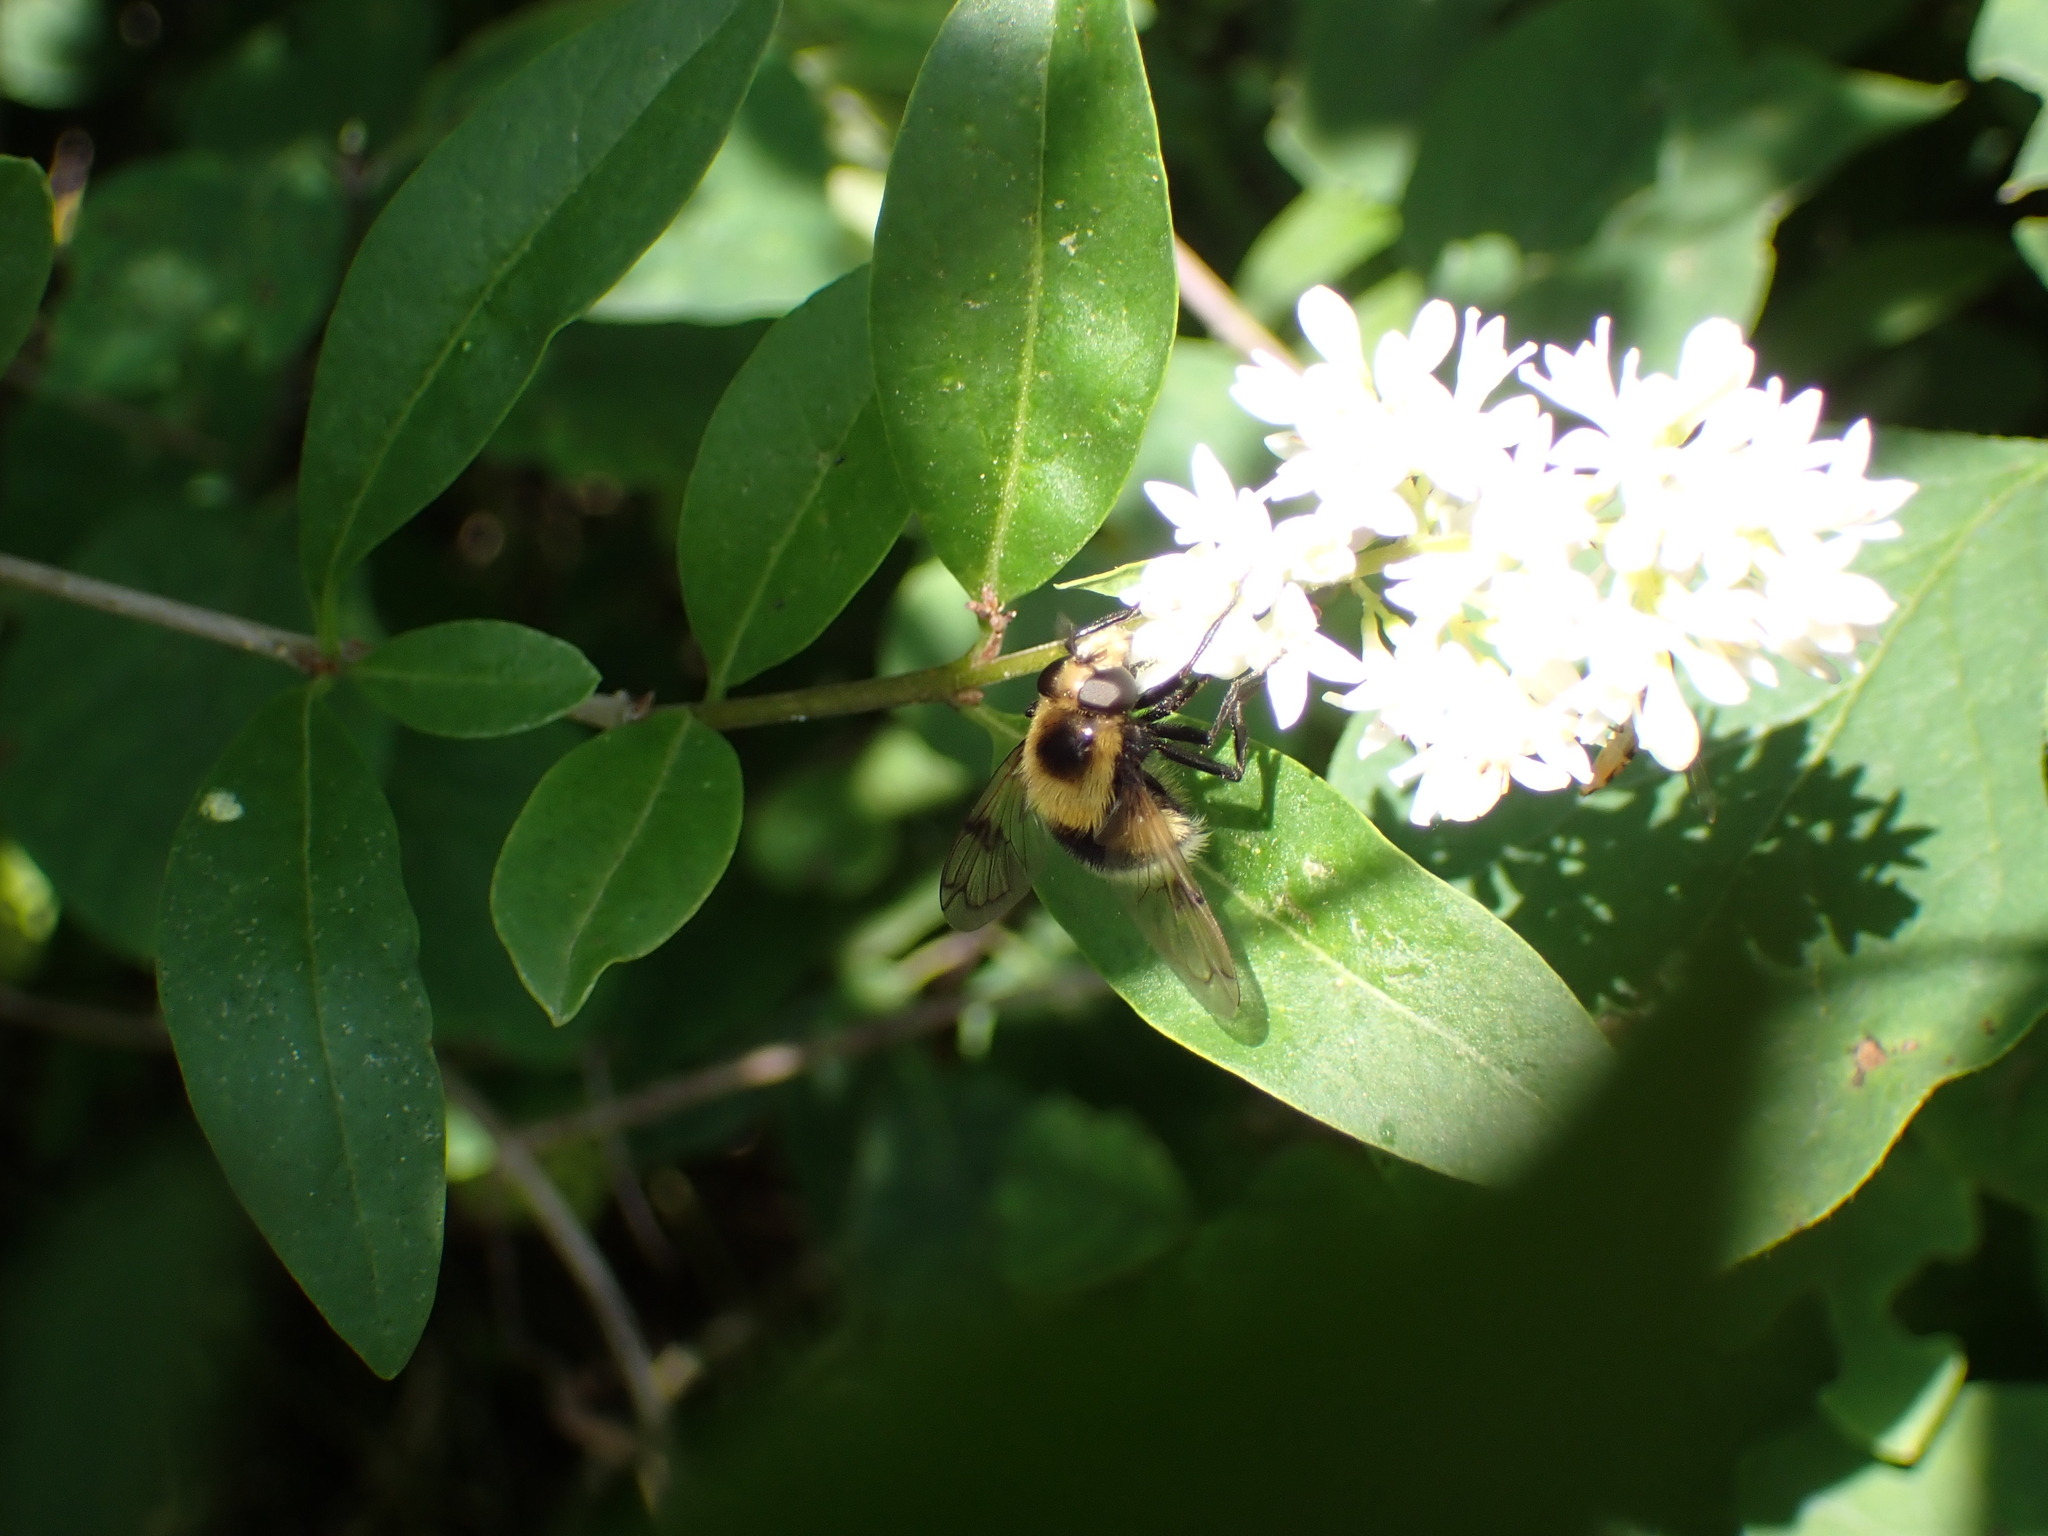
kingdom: Animalia
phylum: Arthropoda
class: Insecta
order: Diptera
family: Syrphidae
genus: Volucella
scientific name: Volucella bombylans
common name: Bumble bee hover fly
